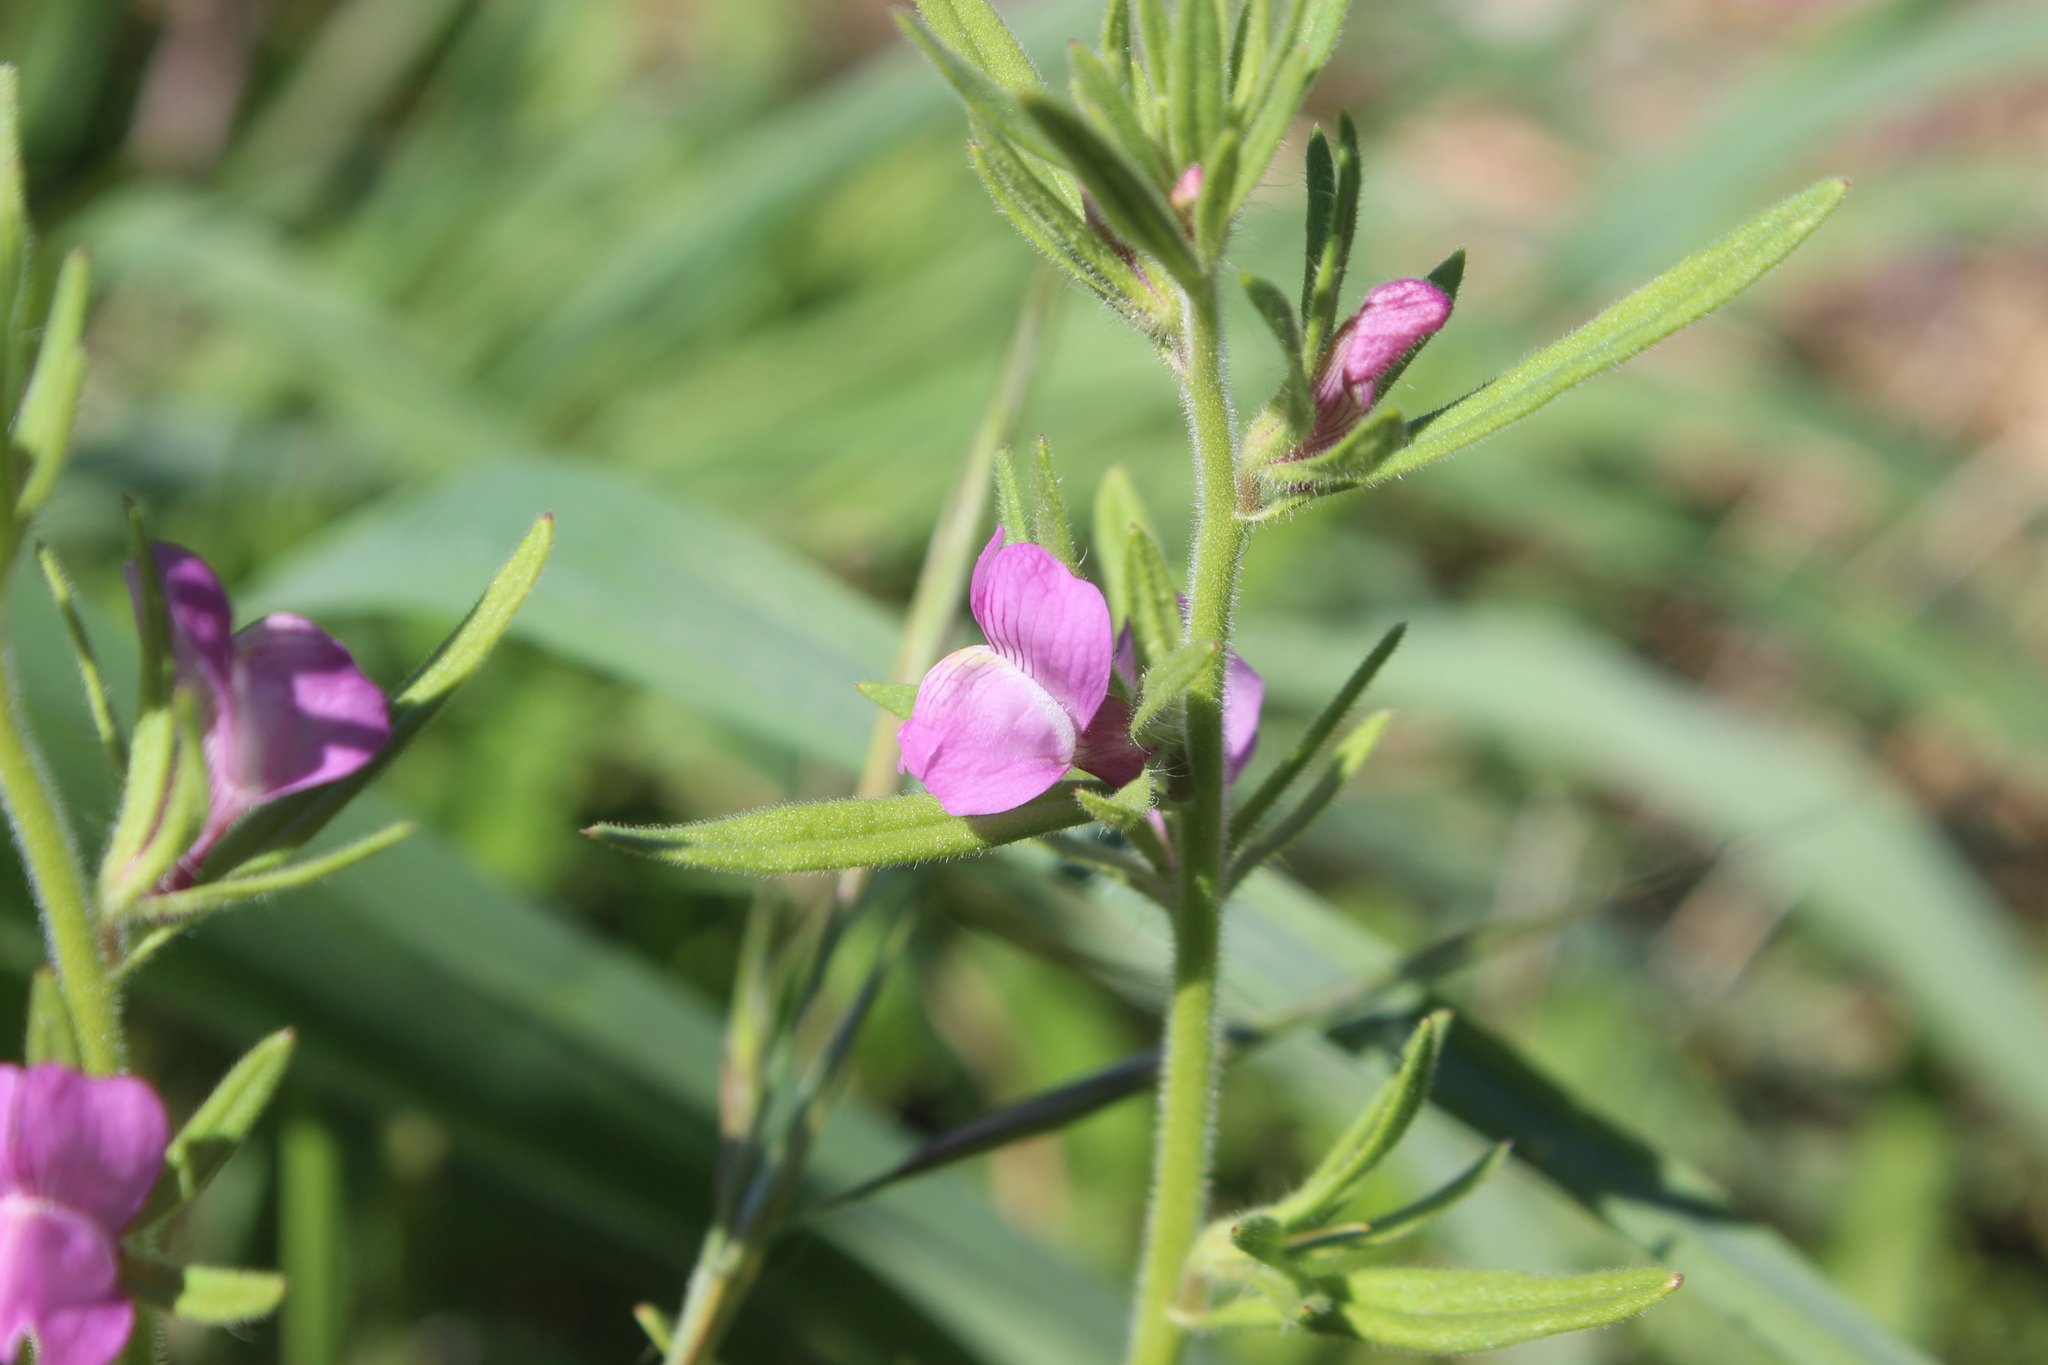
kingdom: Plantae
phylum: Tracheophyta
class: Magnoliopsida
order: Lamiales
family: Plantaginaceae
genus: Misopates
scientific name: Misopates orontium
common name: Weasel's-snout
